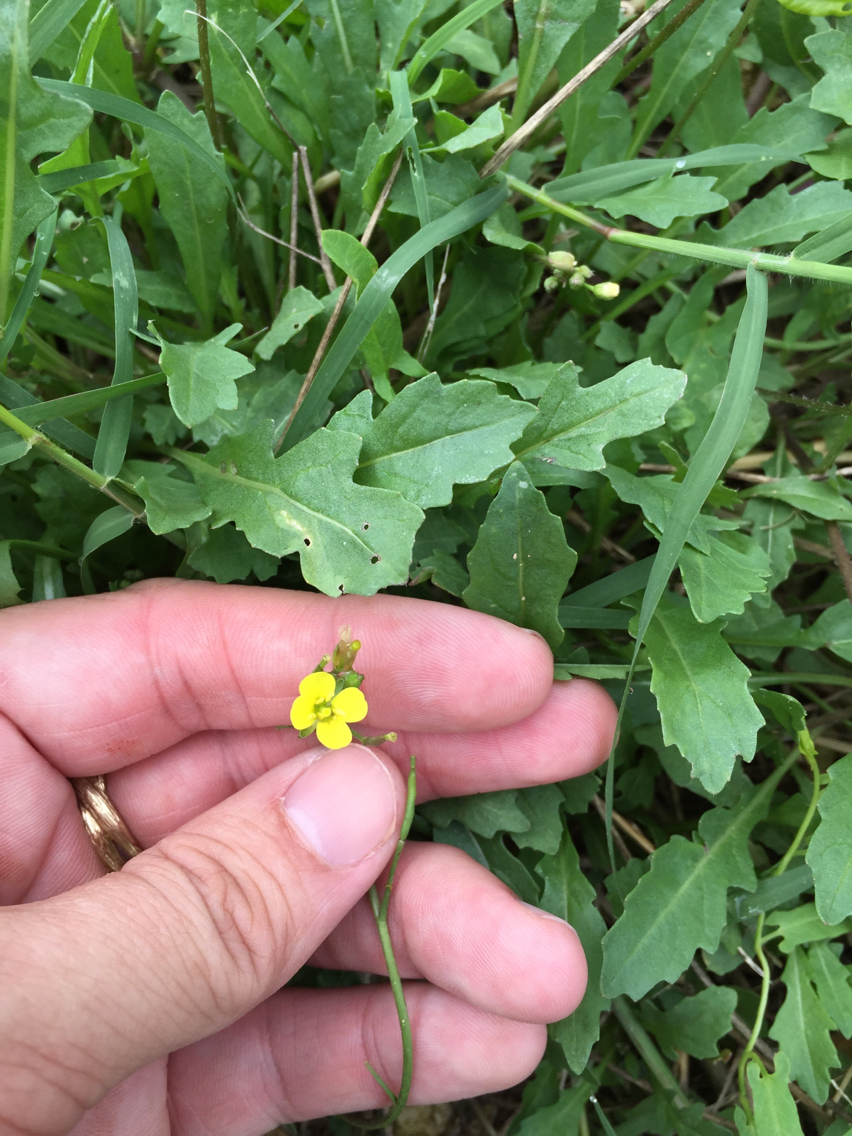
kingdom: Plantae
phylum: Tracheophyta
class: Magnoliopsida
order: Brassicales
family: Brassicaceae
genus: Diplotaxis
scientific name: Diplotaxis muralis
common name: Annual wall-rocket
